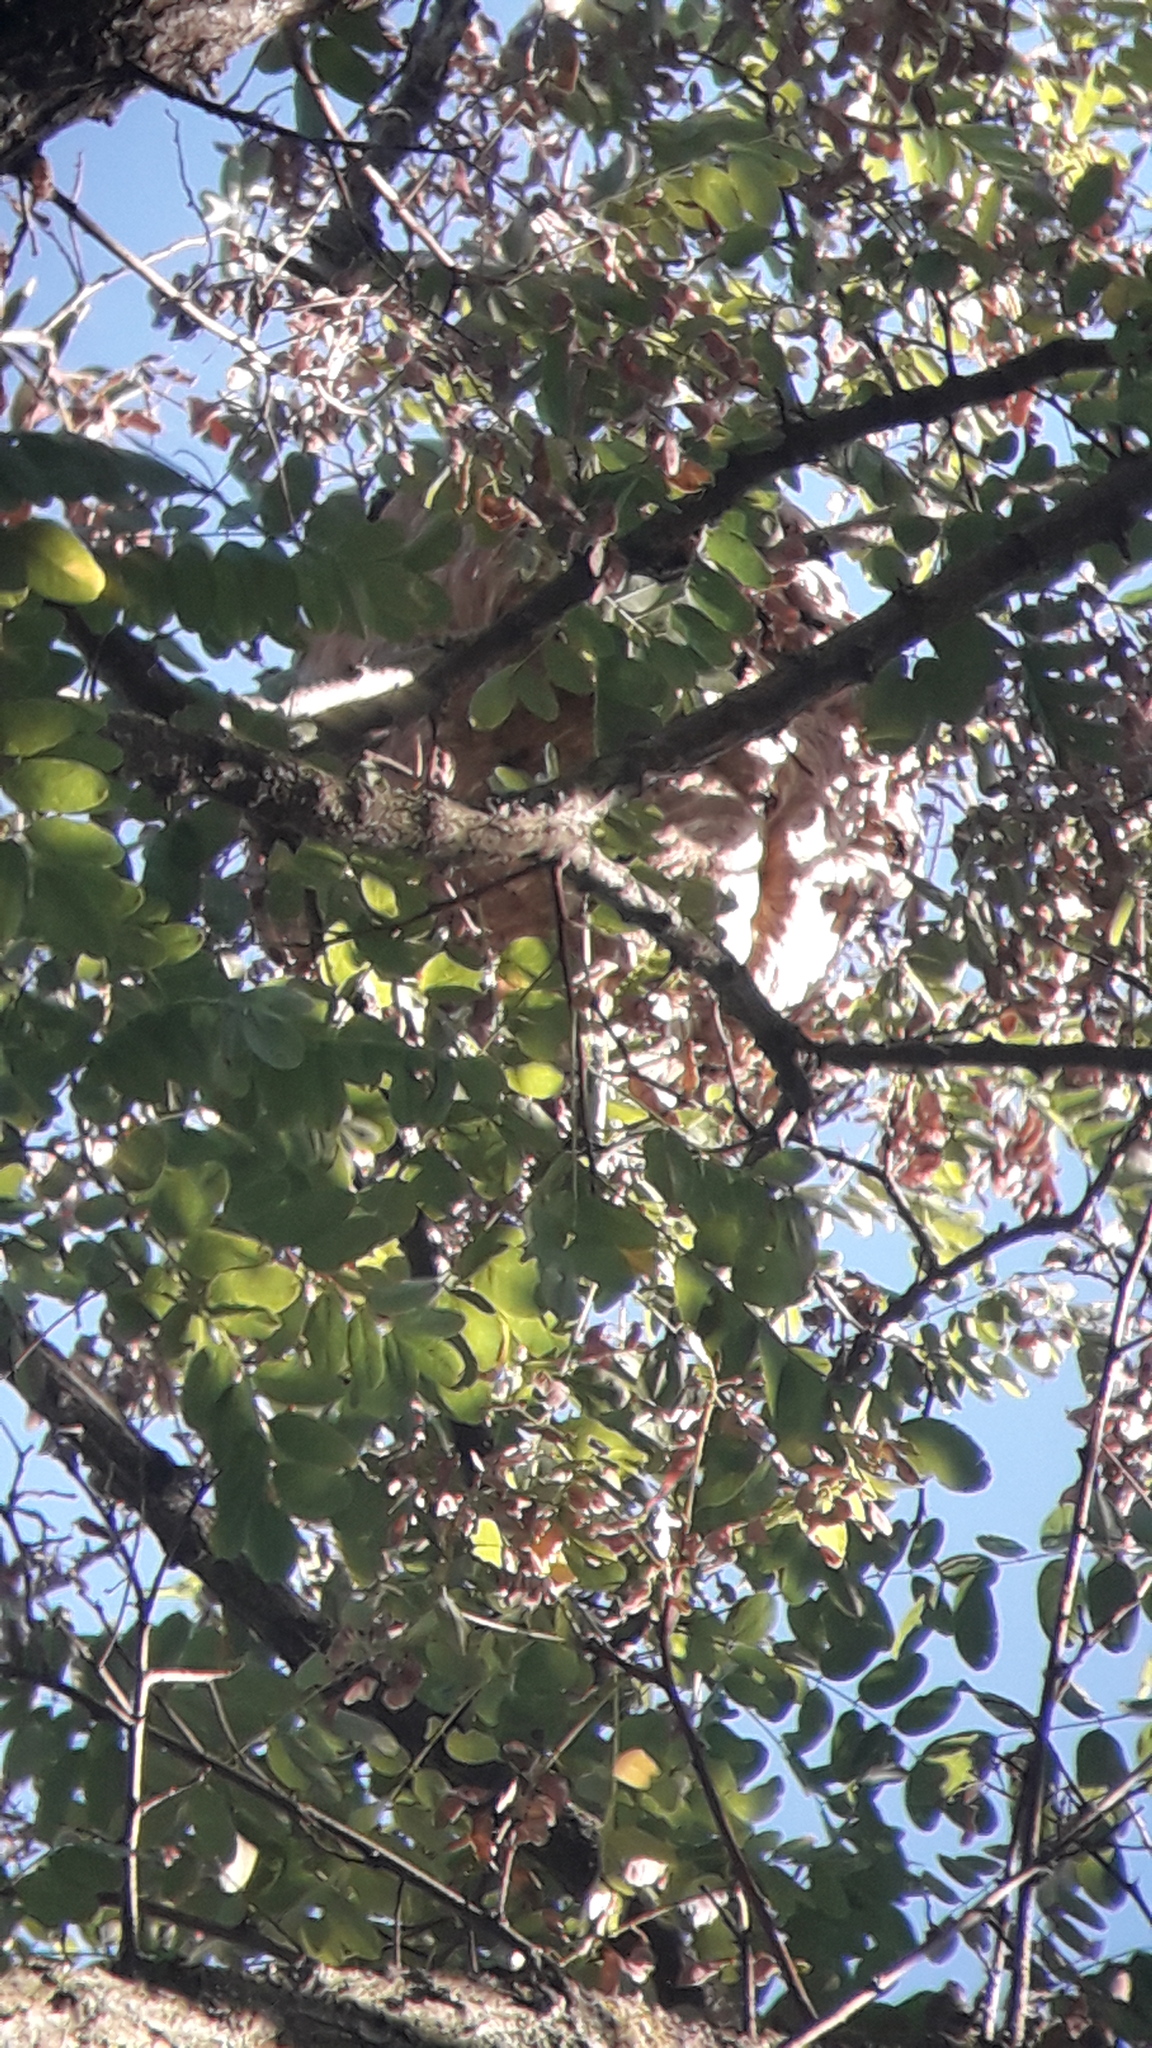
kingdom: Animalia
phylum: Arthropoda
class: Insecta
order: Hymenoptera
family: Vespidae
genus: Vespa
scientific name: Vespa velutina
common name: Asian hornet
